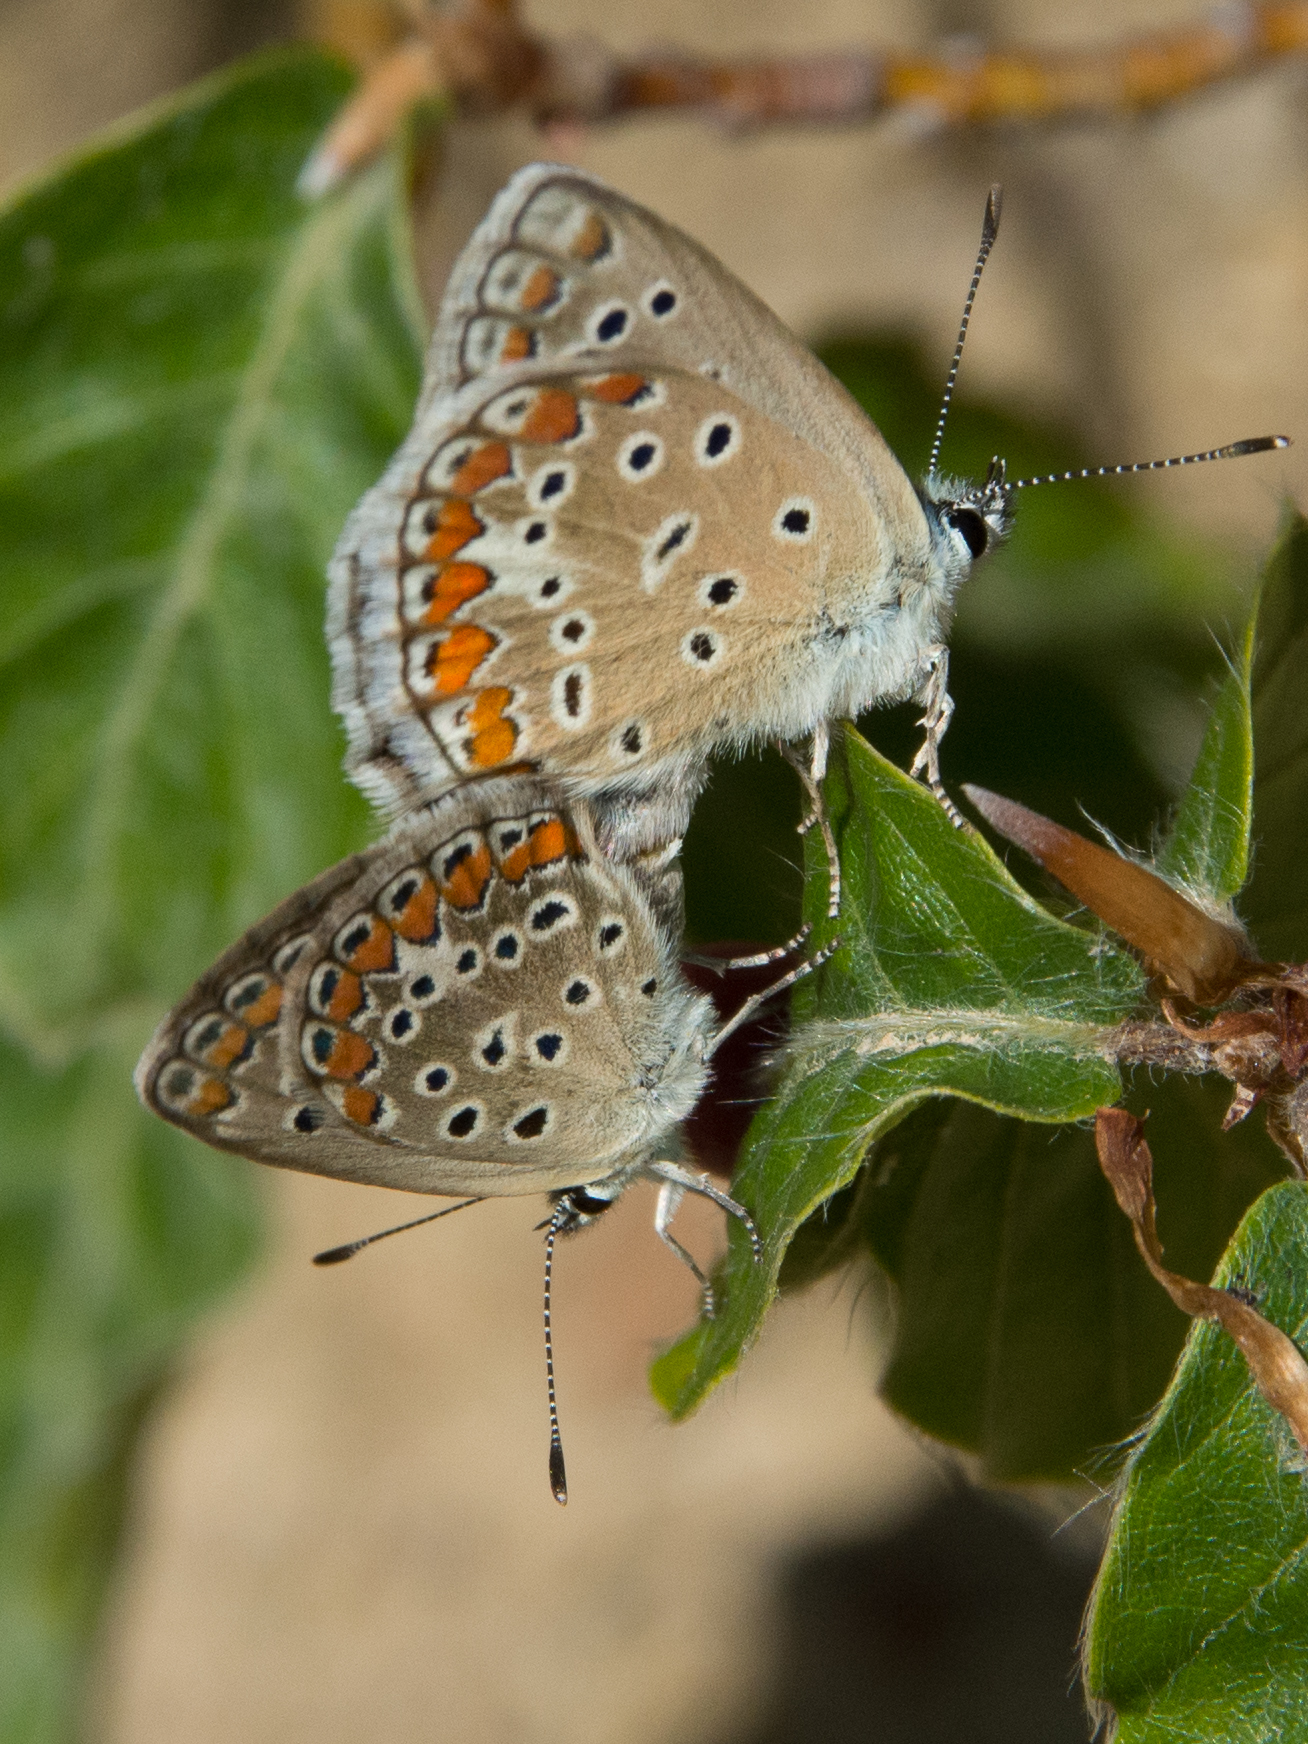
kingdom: Animalia
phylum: Arthropoda
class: Insecta
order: Lepidoptera
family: Lycaenidae
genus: Polyommatus
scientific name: Polyommatus celina
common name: Austaut's blue
